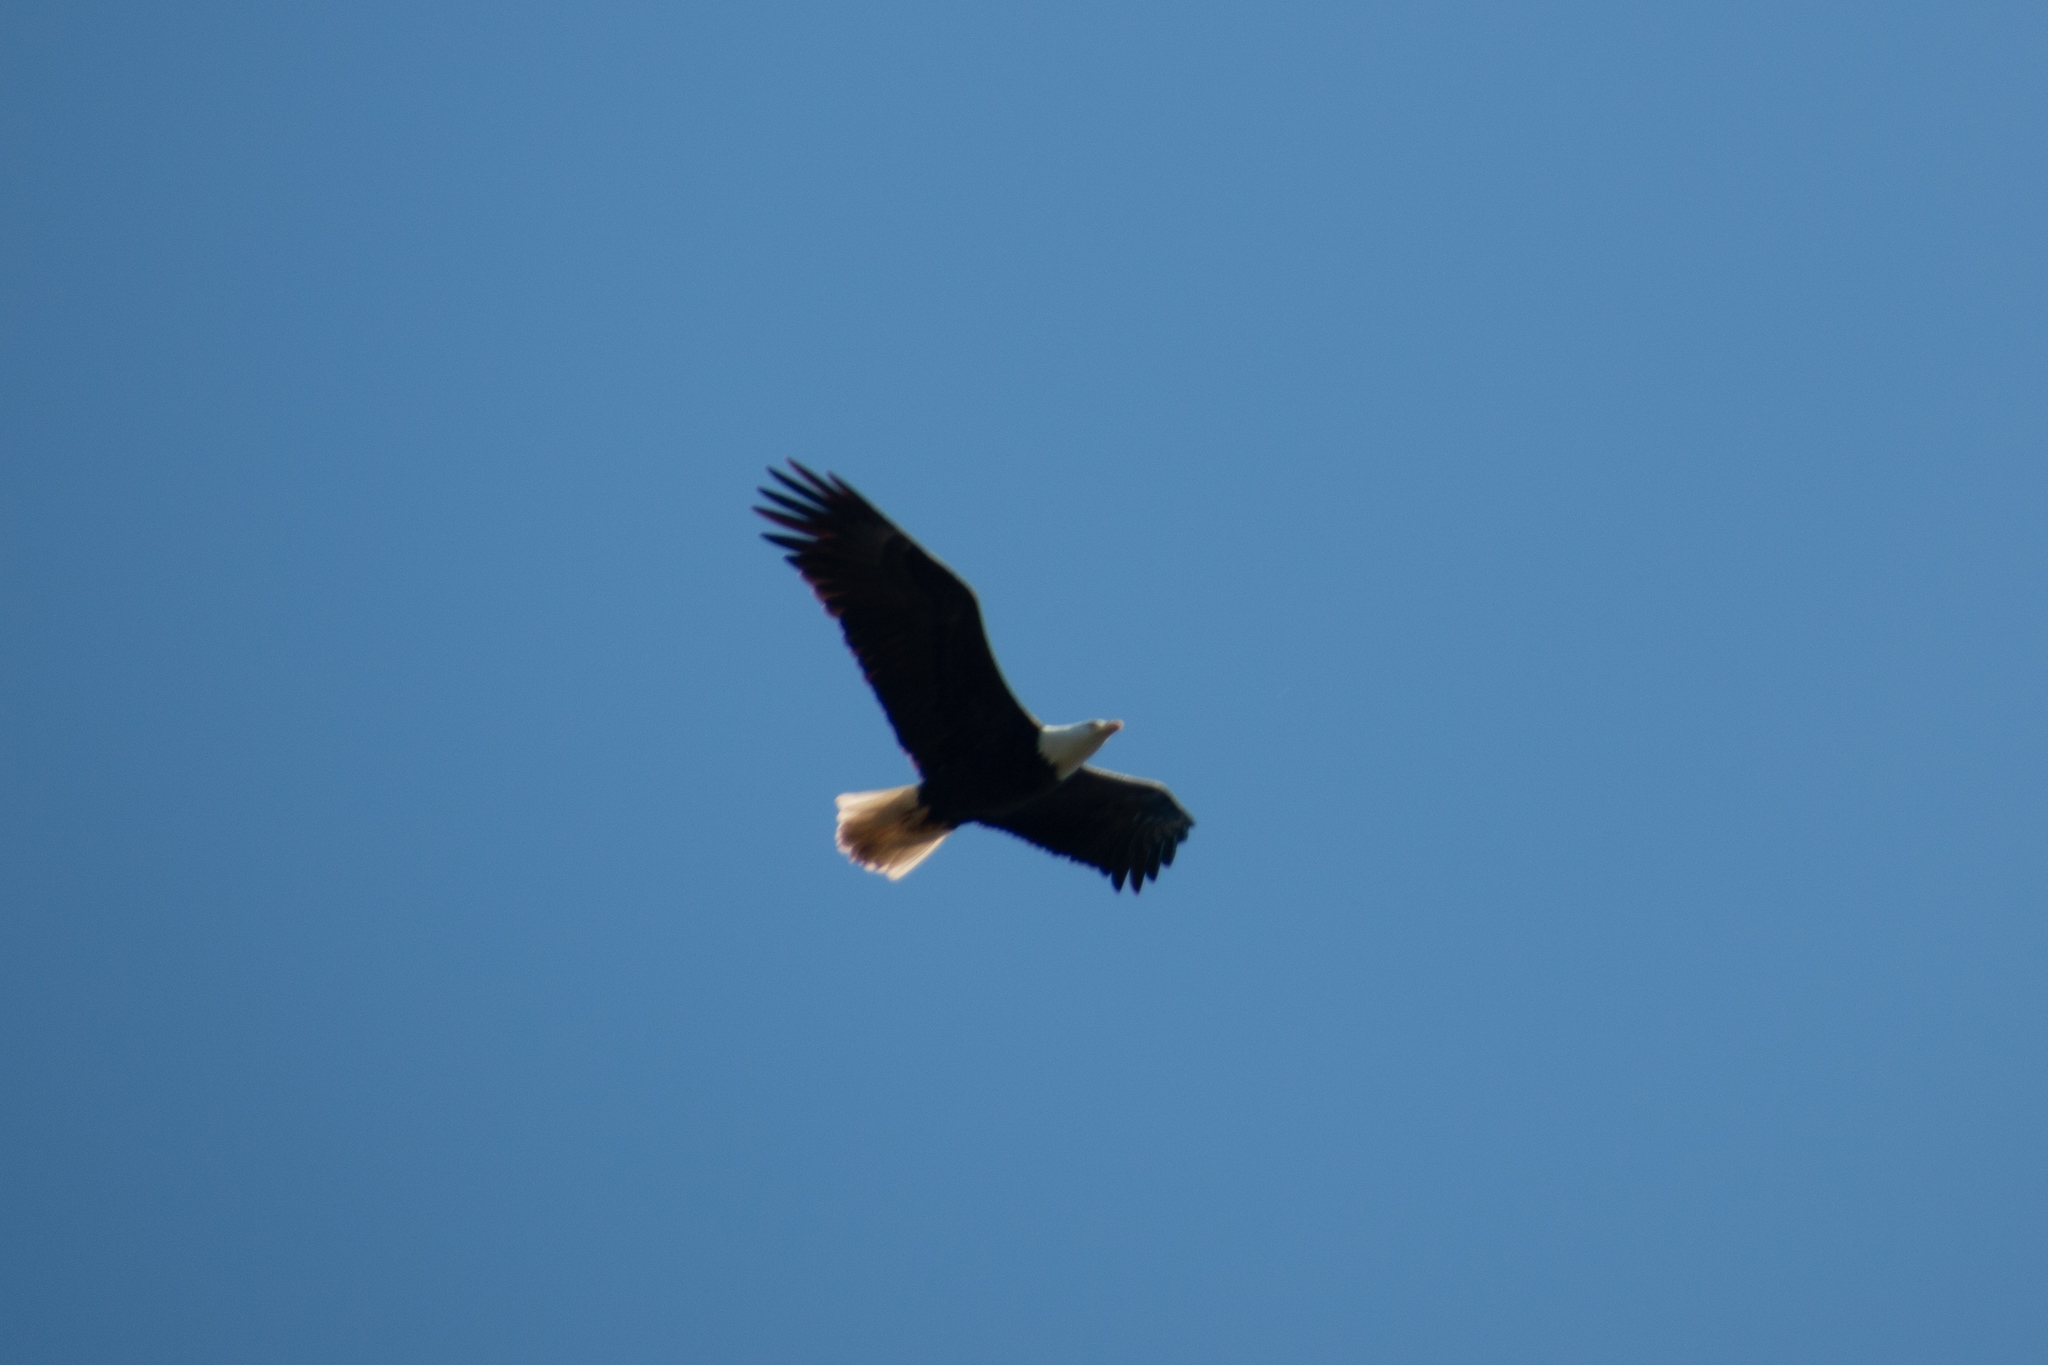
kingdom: Animalia
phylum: Chordata
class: Aves
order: Accipitriformes
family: Accipitridae
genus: Haliaeetus
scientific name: Haliaeetus leucocephalus
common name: Bald eagle
